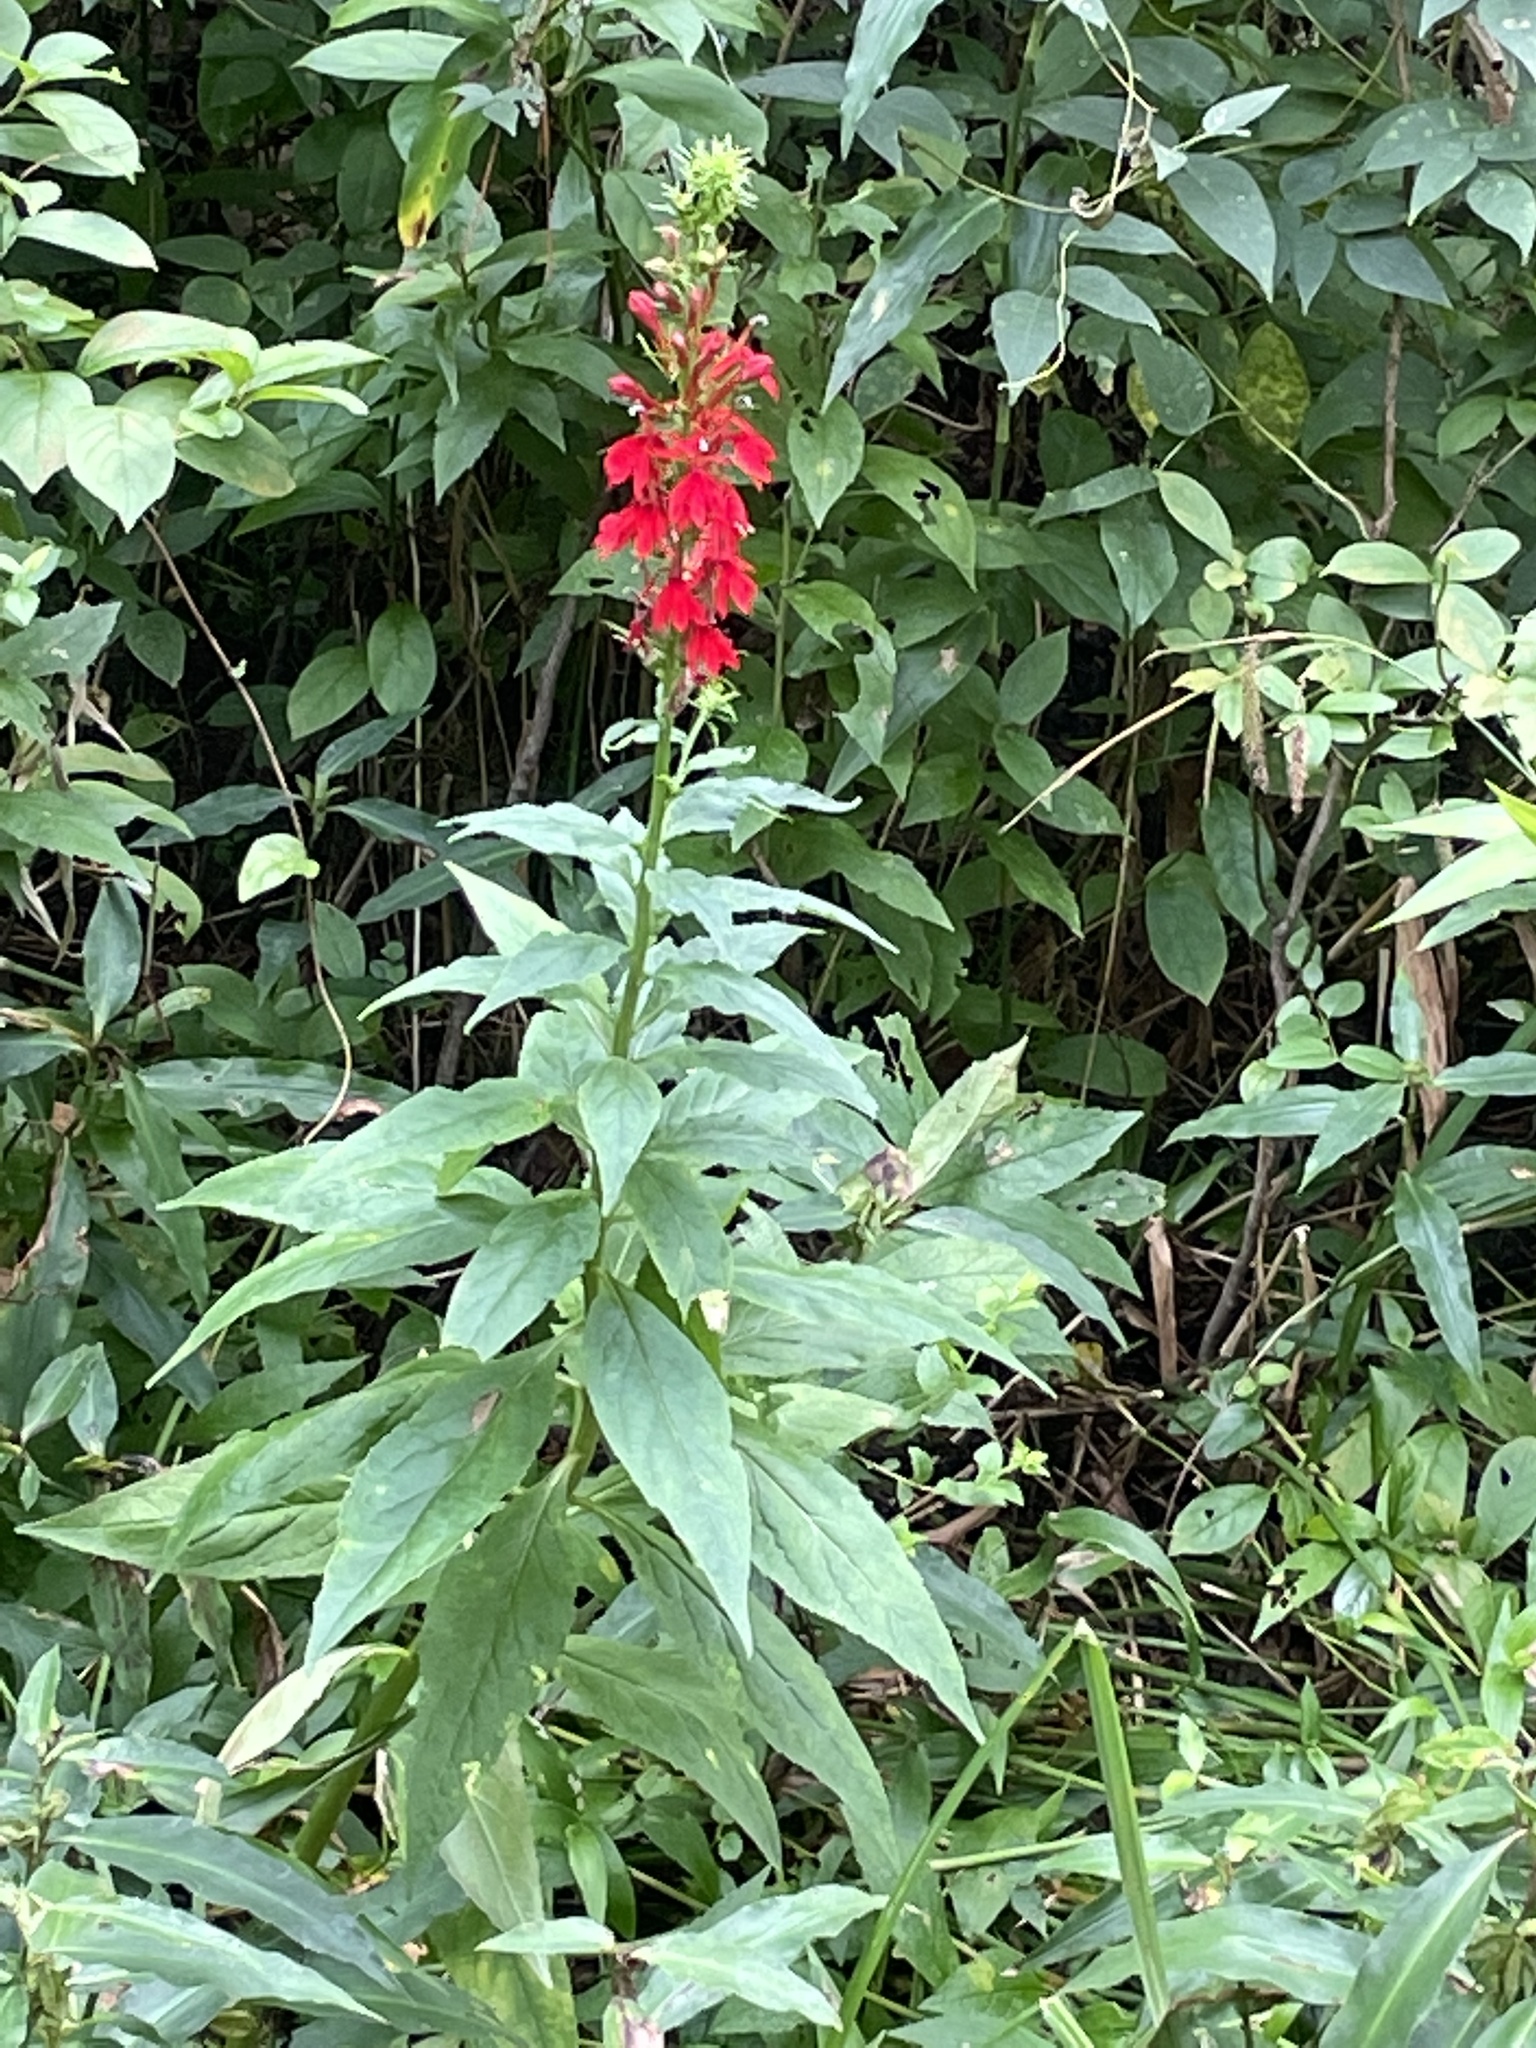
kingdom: Plantae
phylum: Tracheophyta
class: Magnoliopsida
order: Asterales
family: Campanulaceae
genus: Lobelia
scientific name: Lobelia cardinalis
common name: Cardinal flower
